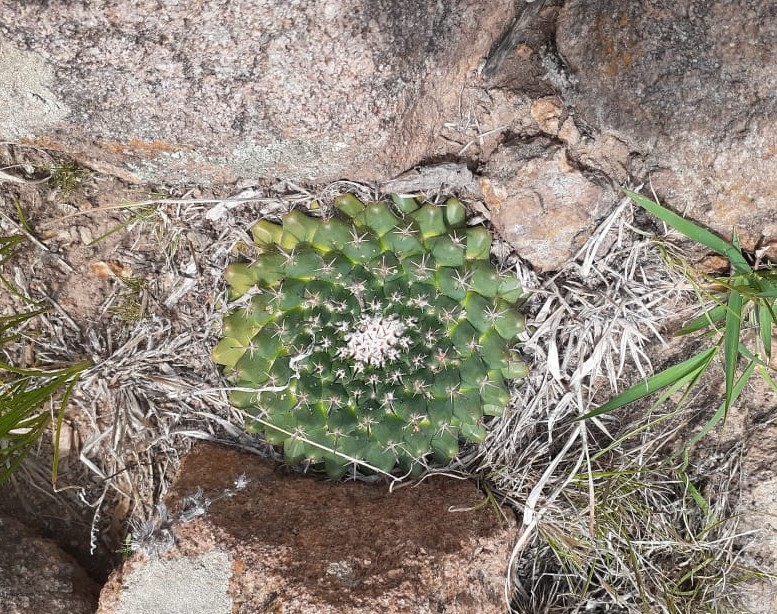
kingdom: Plantae
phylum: Tracheophyta
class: Magnoliopsida
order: Caryophyllales
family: Cactaceae
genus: Mammillaria
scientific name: Mammillaria uncinata
